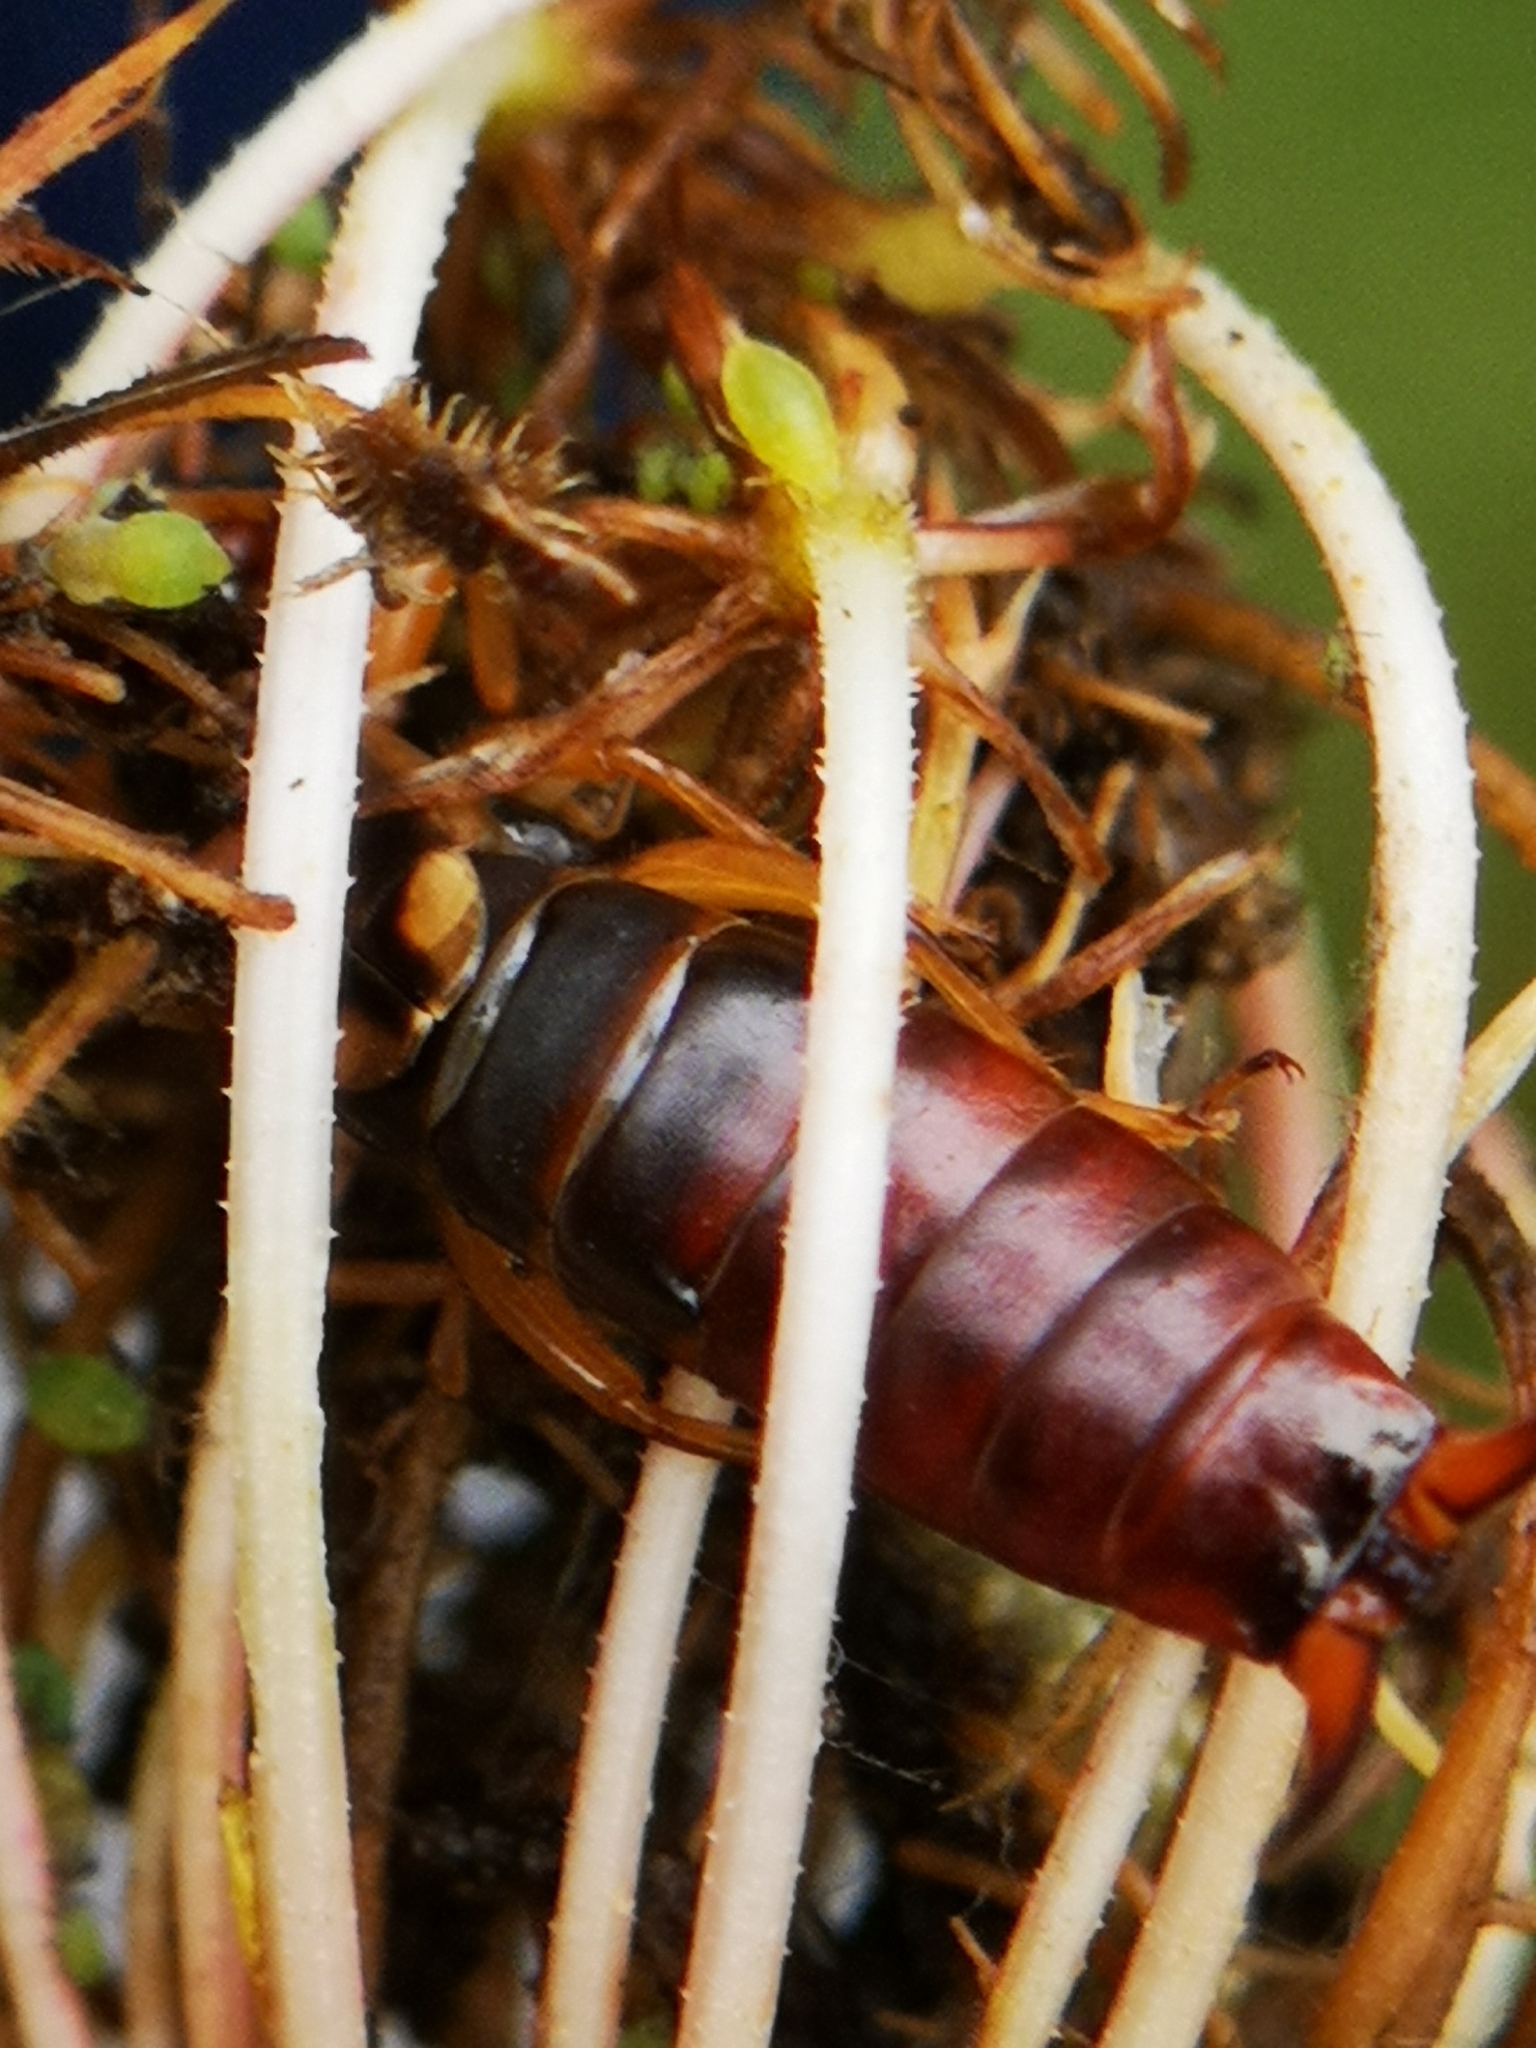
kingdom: Animalia
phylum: Arthropoda
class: Insecta
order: Dermaptera
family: Forficulidae
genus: Forficula
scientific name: Forficula
